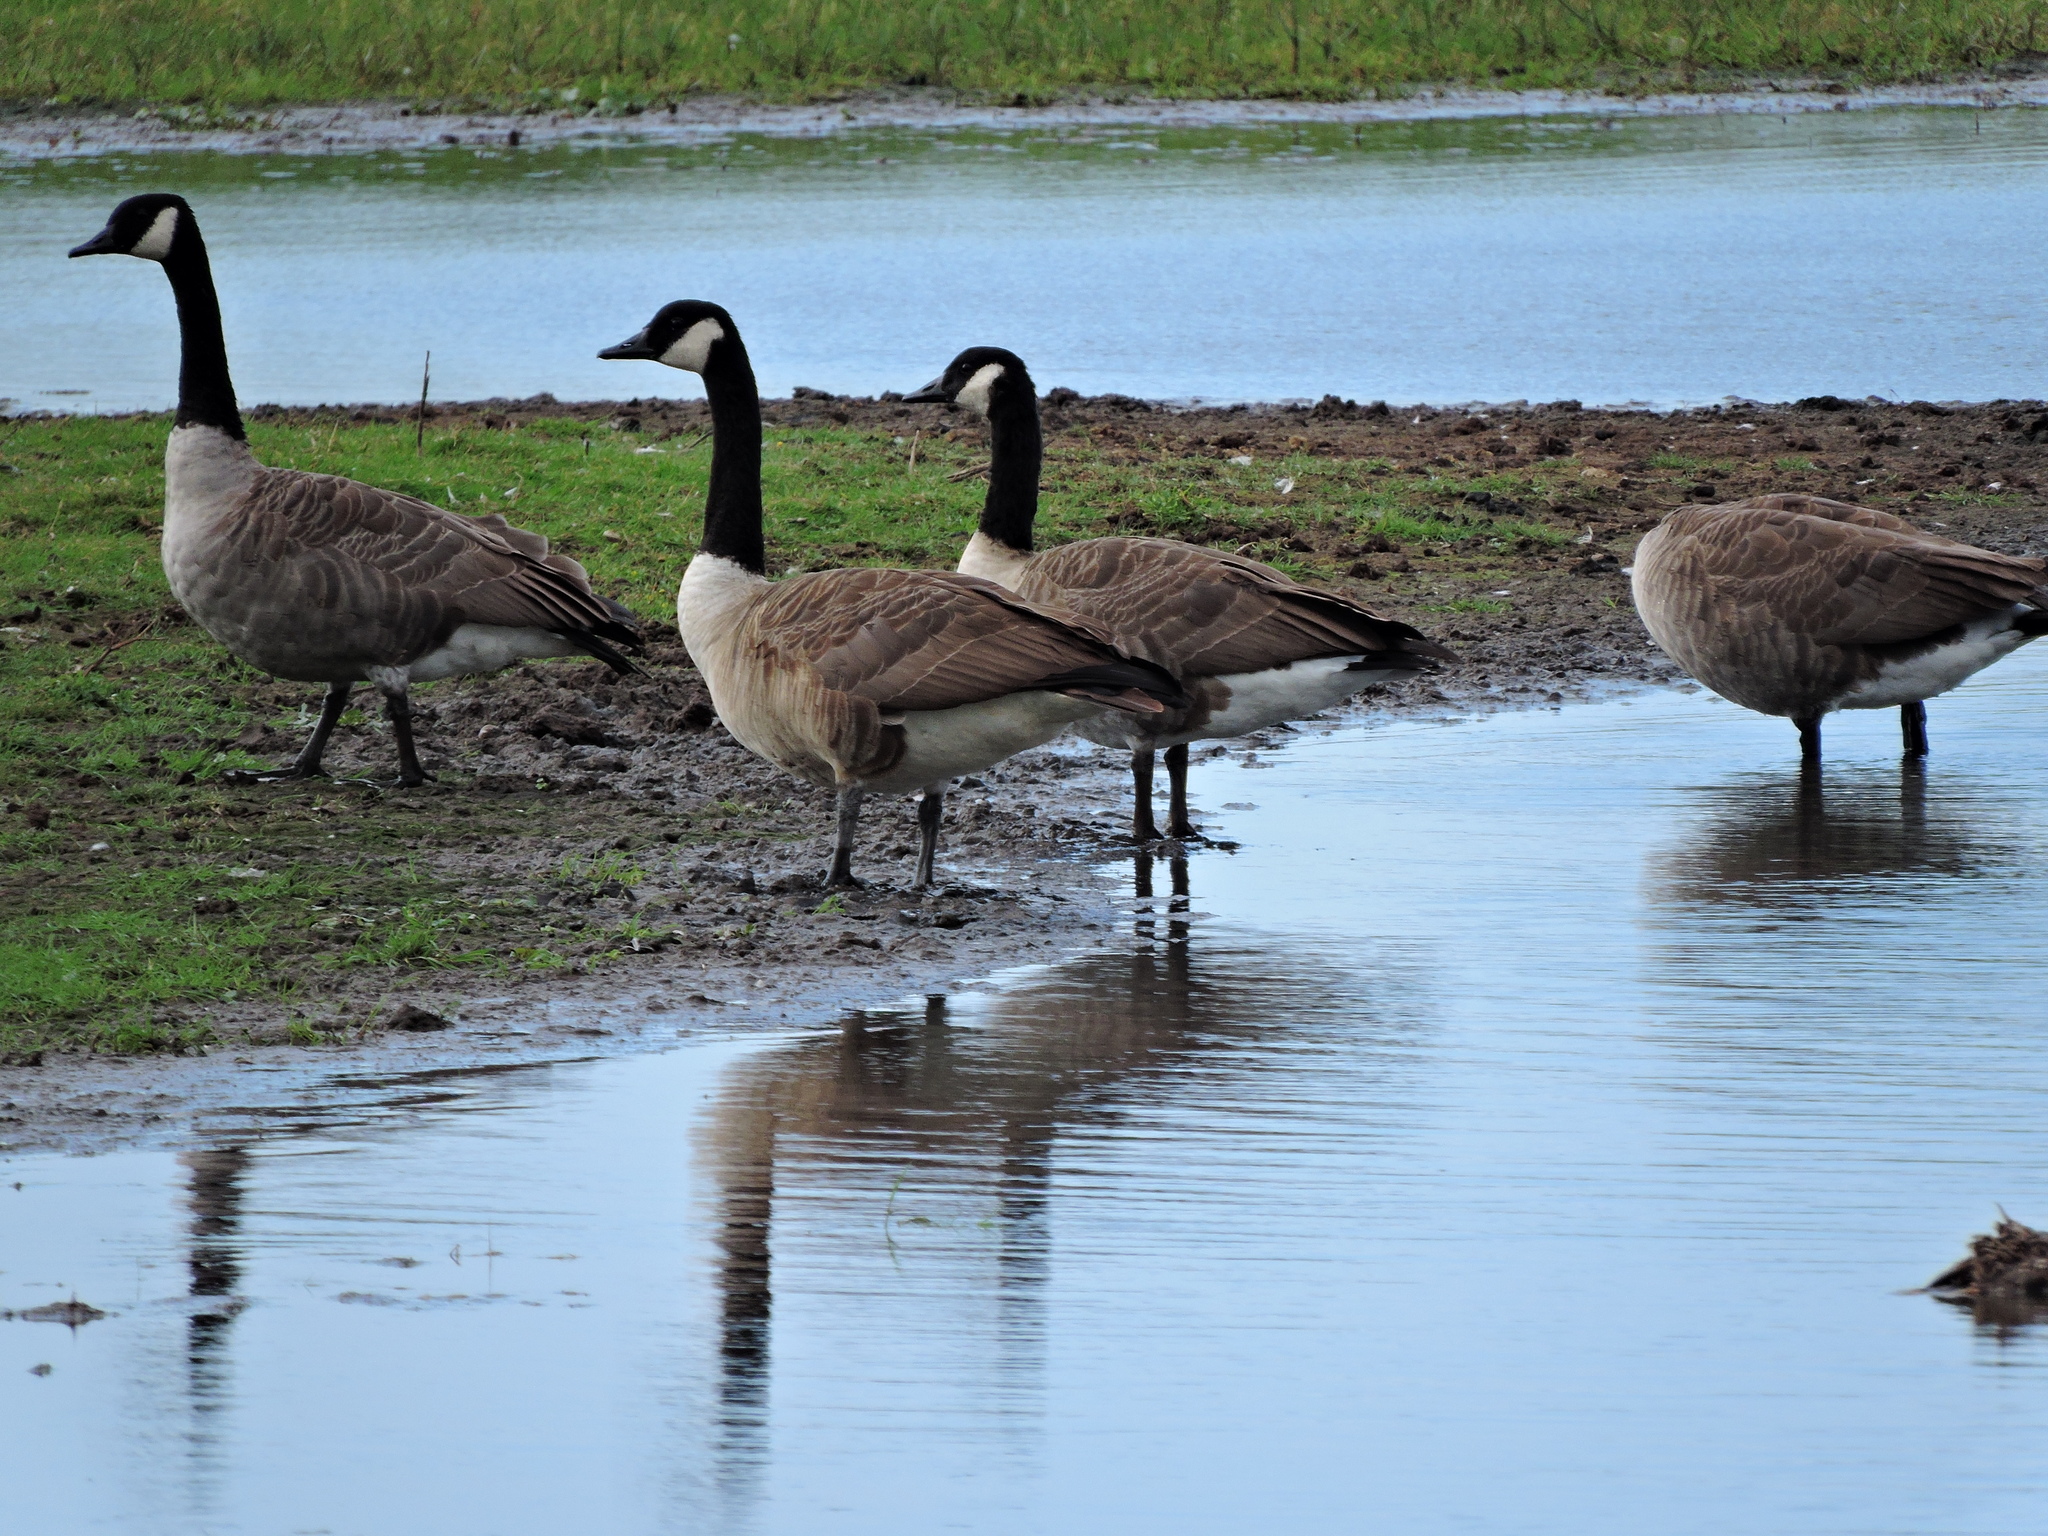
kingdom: Animalia
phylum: Chordata
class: Aves
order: Anseriformes
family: Anatidae
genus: Branta
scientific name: Branta canadensis
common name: Canada goose
